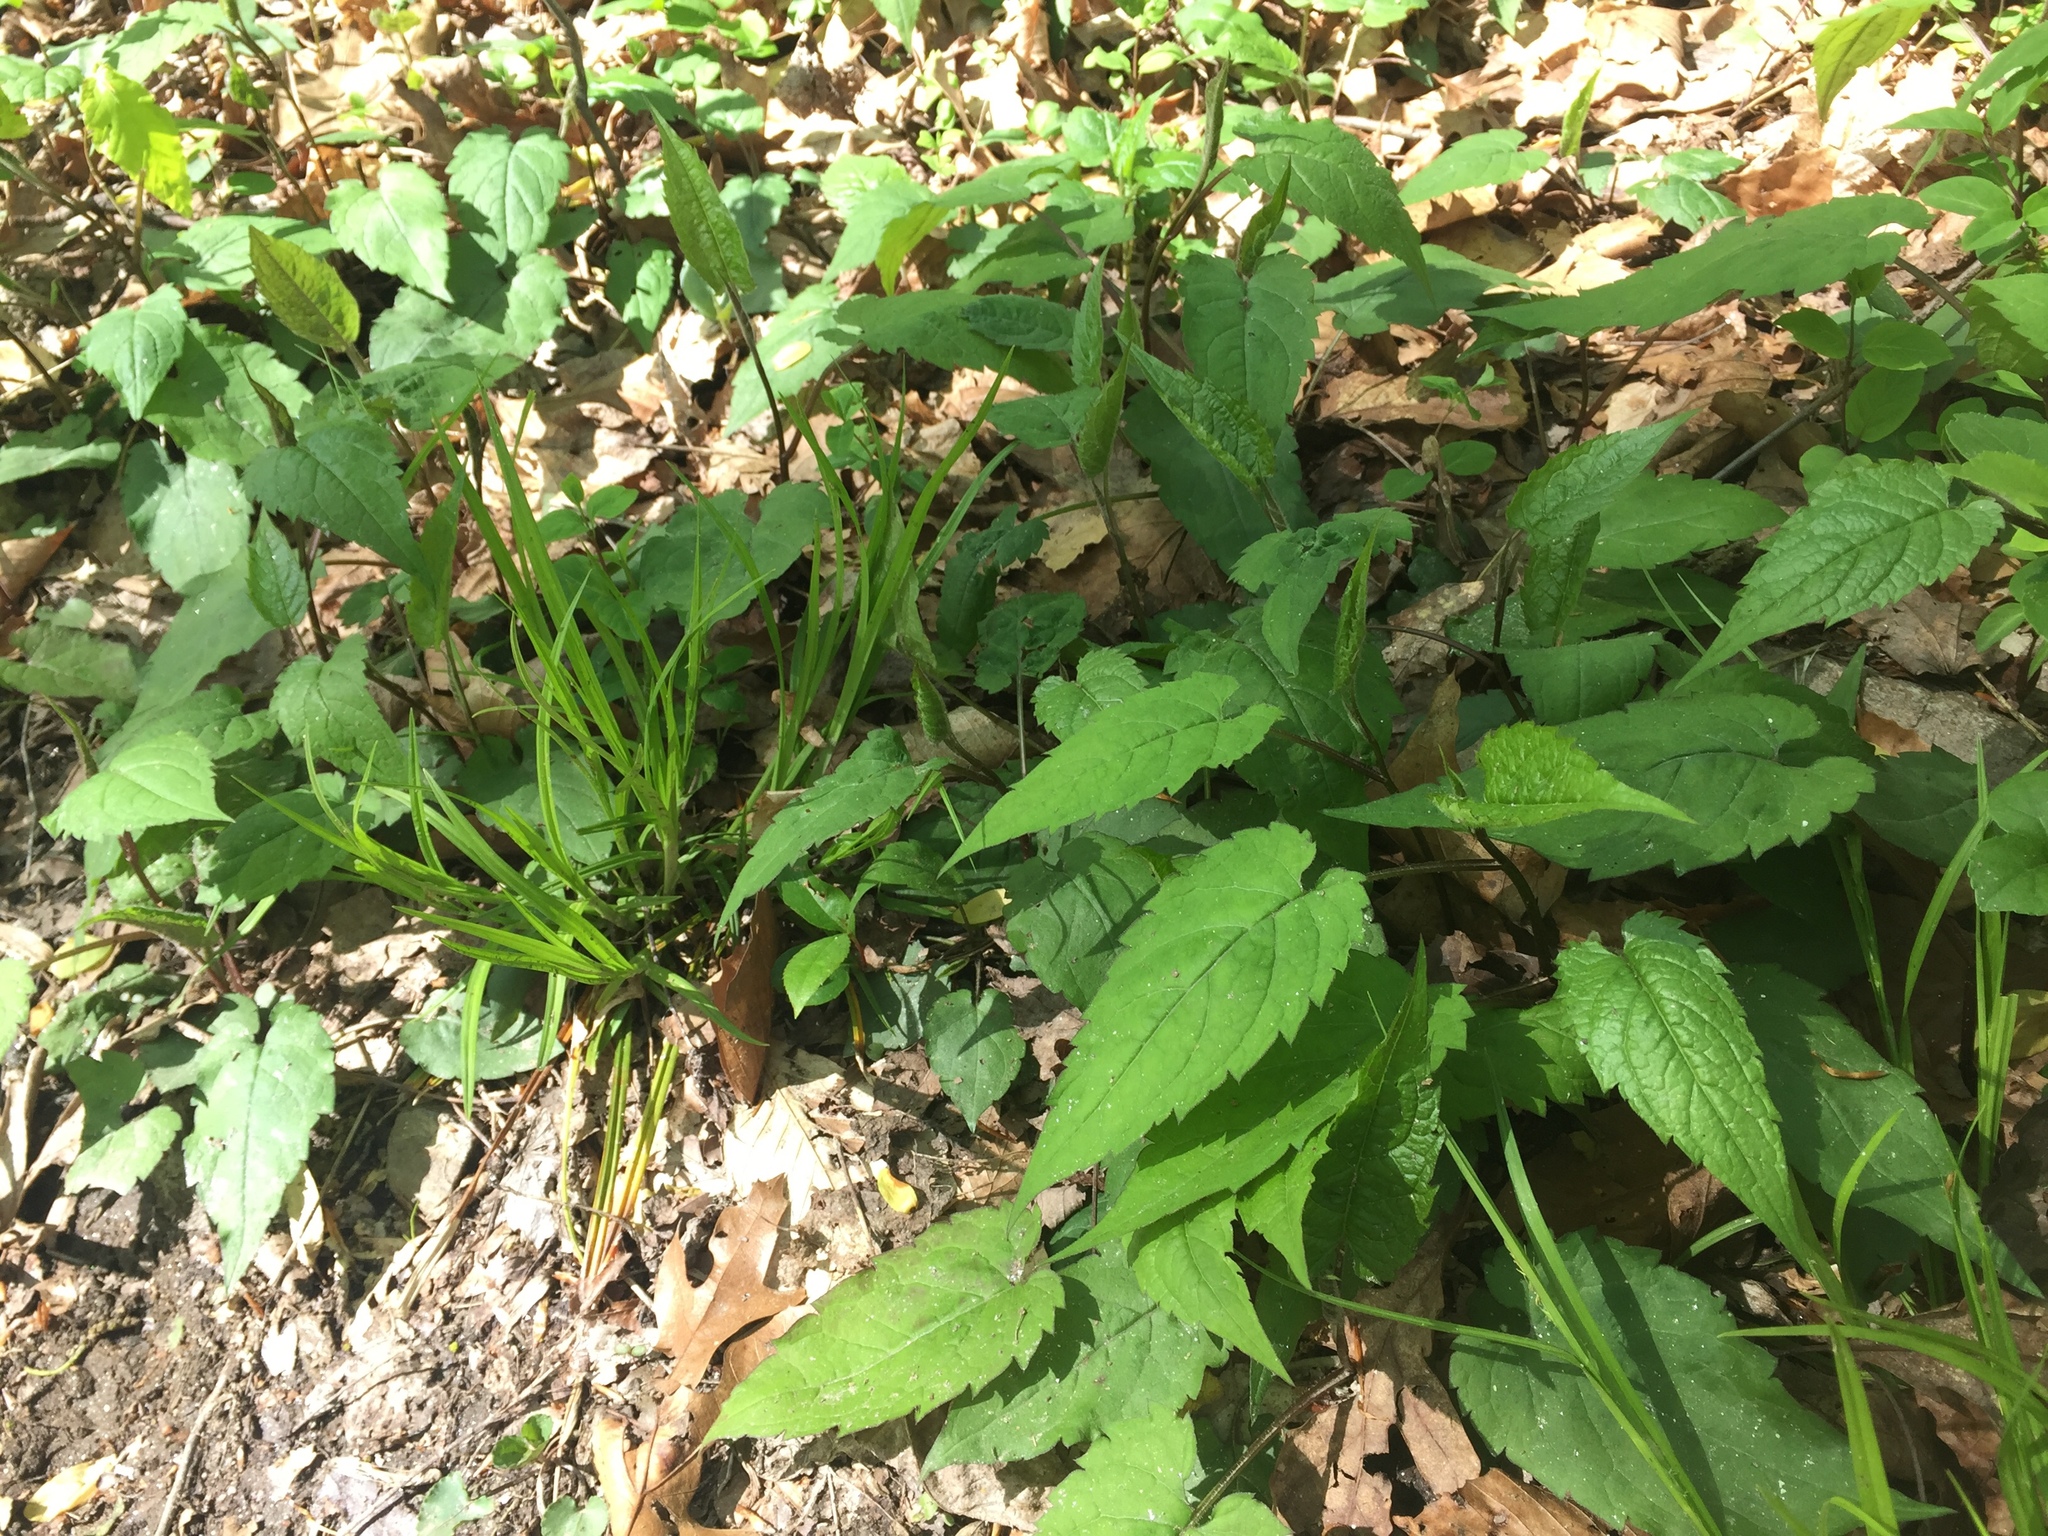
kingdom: Plantae
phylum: Tracheophyta
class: Magnoliopsida
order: Asterales
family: Asteraceae
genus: Eurybia
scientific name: Eurybia divaricata
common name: White wood aster
